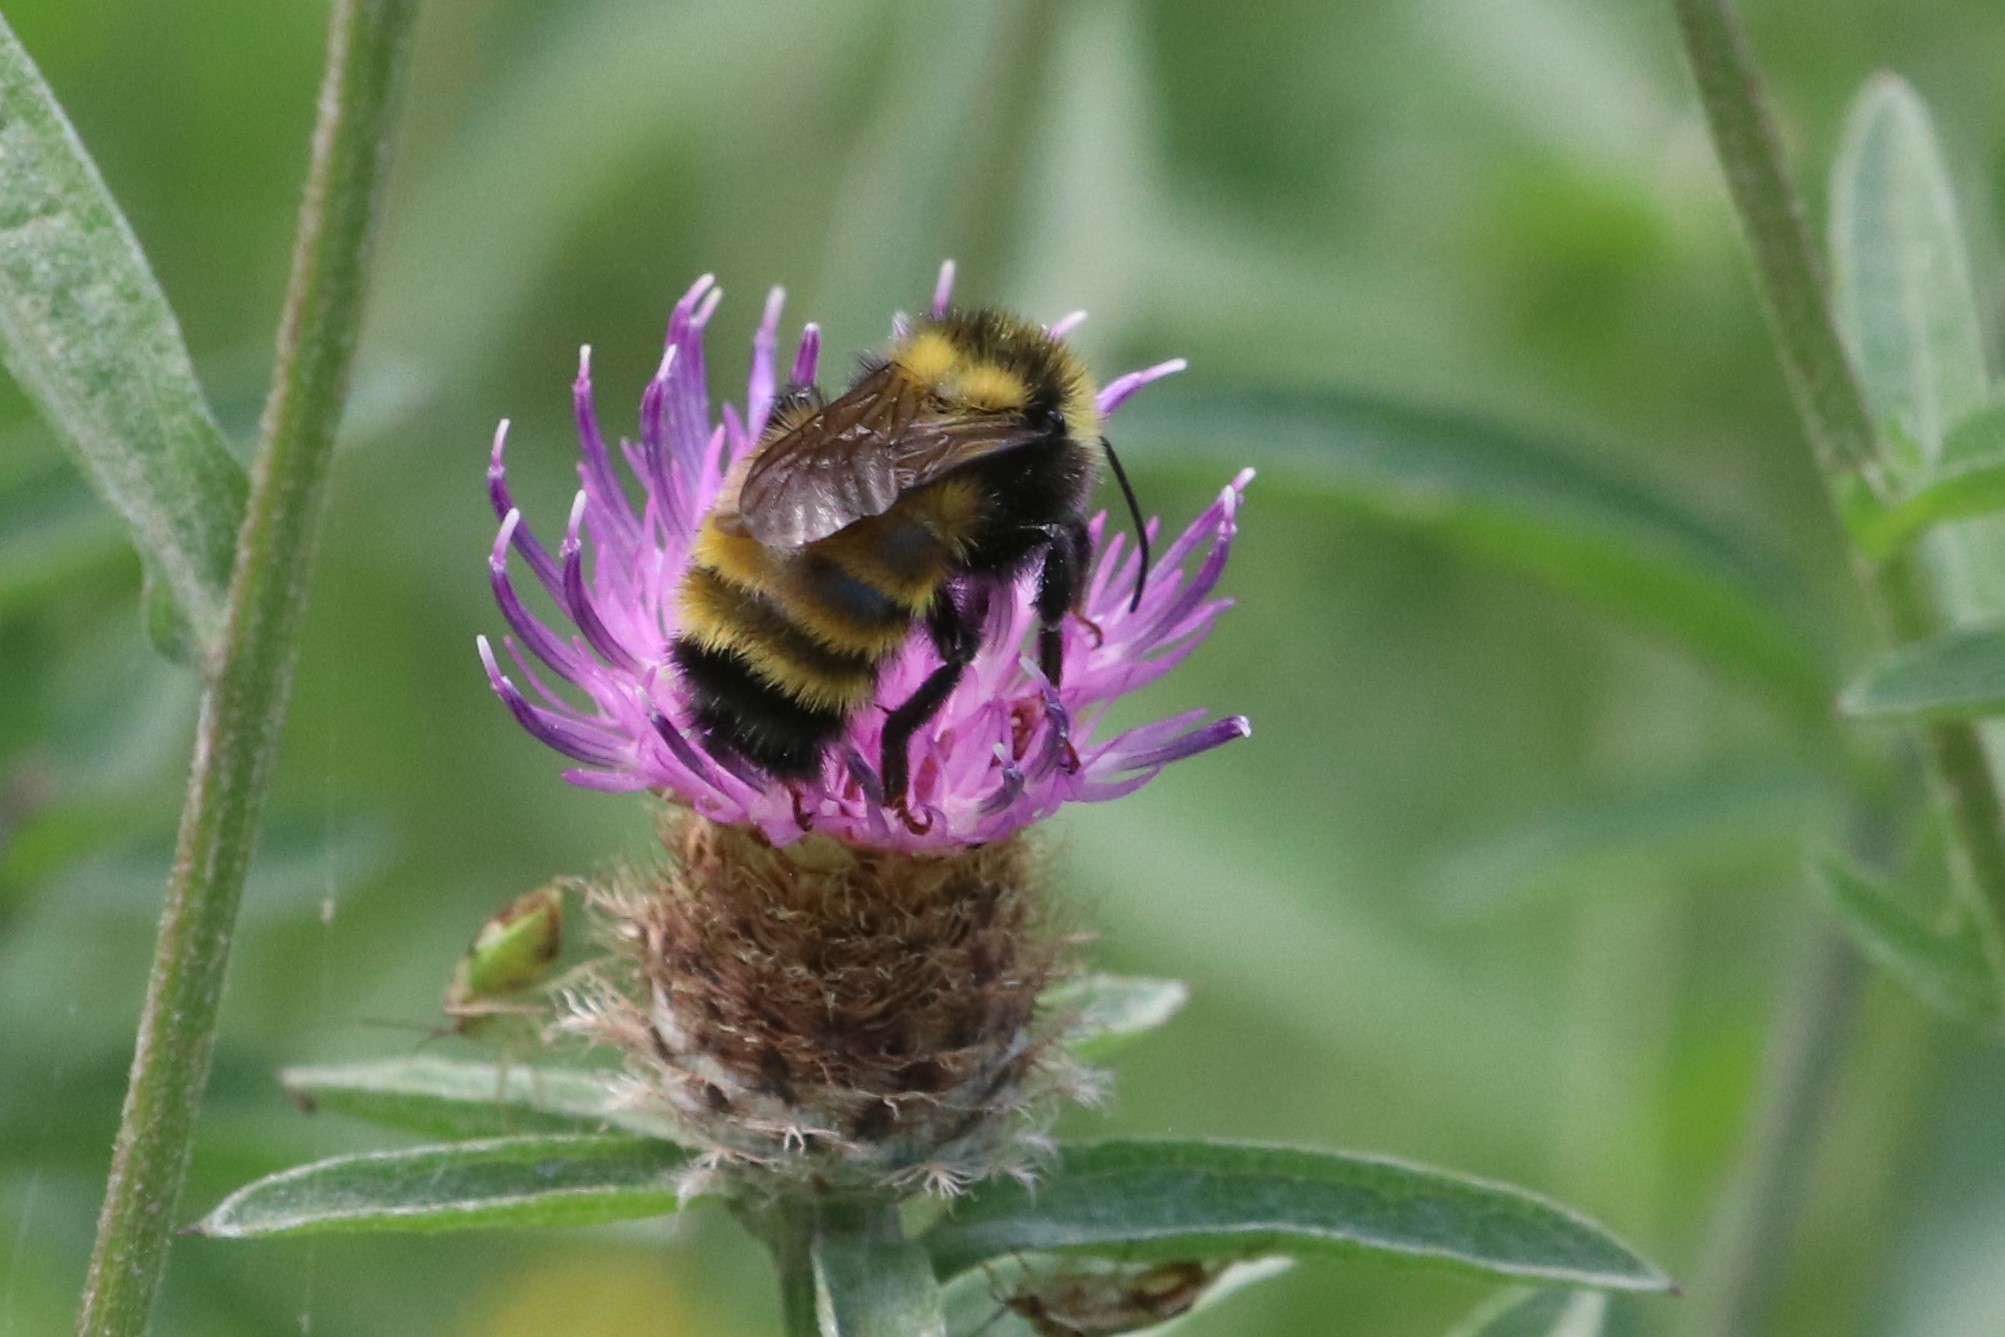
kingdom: Animalia
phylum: Arthropoda
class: Insecta
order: Hymenoptera
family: Apidae
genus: Bombus
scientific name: Bombus borealis
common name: Northern amber bumble bee
